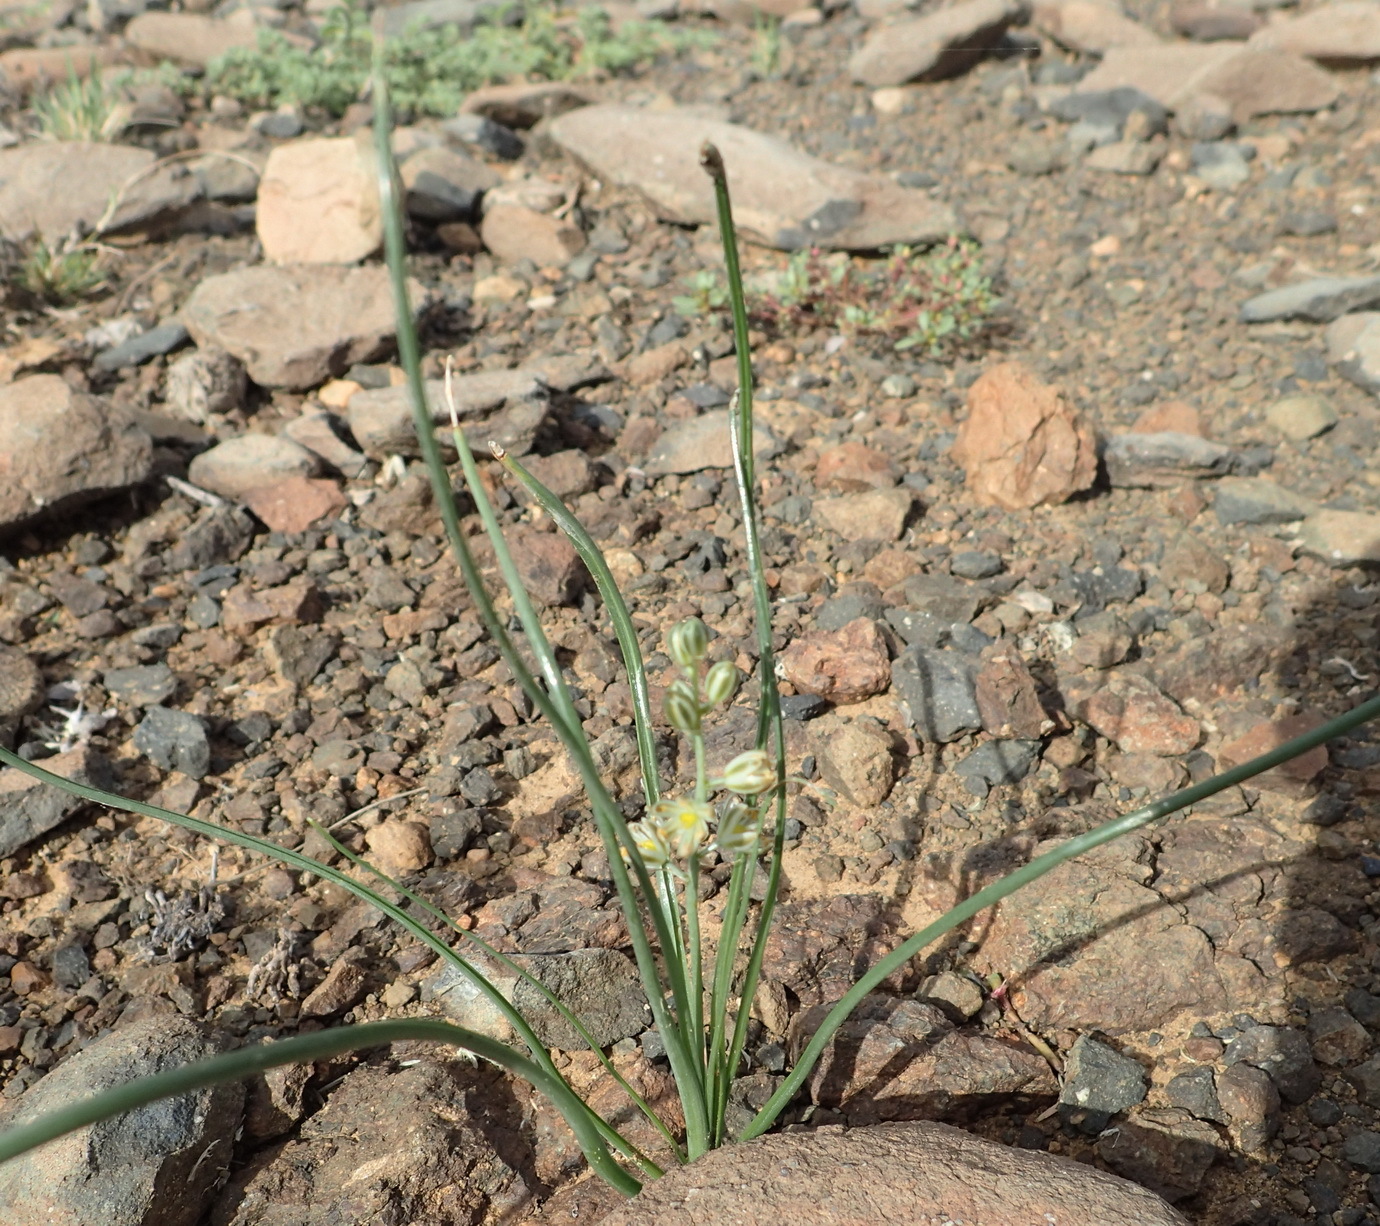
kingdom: Plantae
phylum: Tracheophyta
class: Liliopsida
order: Asparagales
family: Asparagaceae
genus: Albuca
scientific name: Albuca virens
